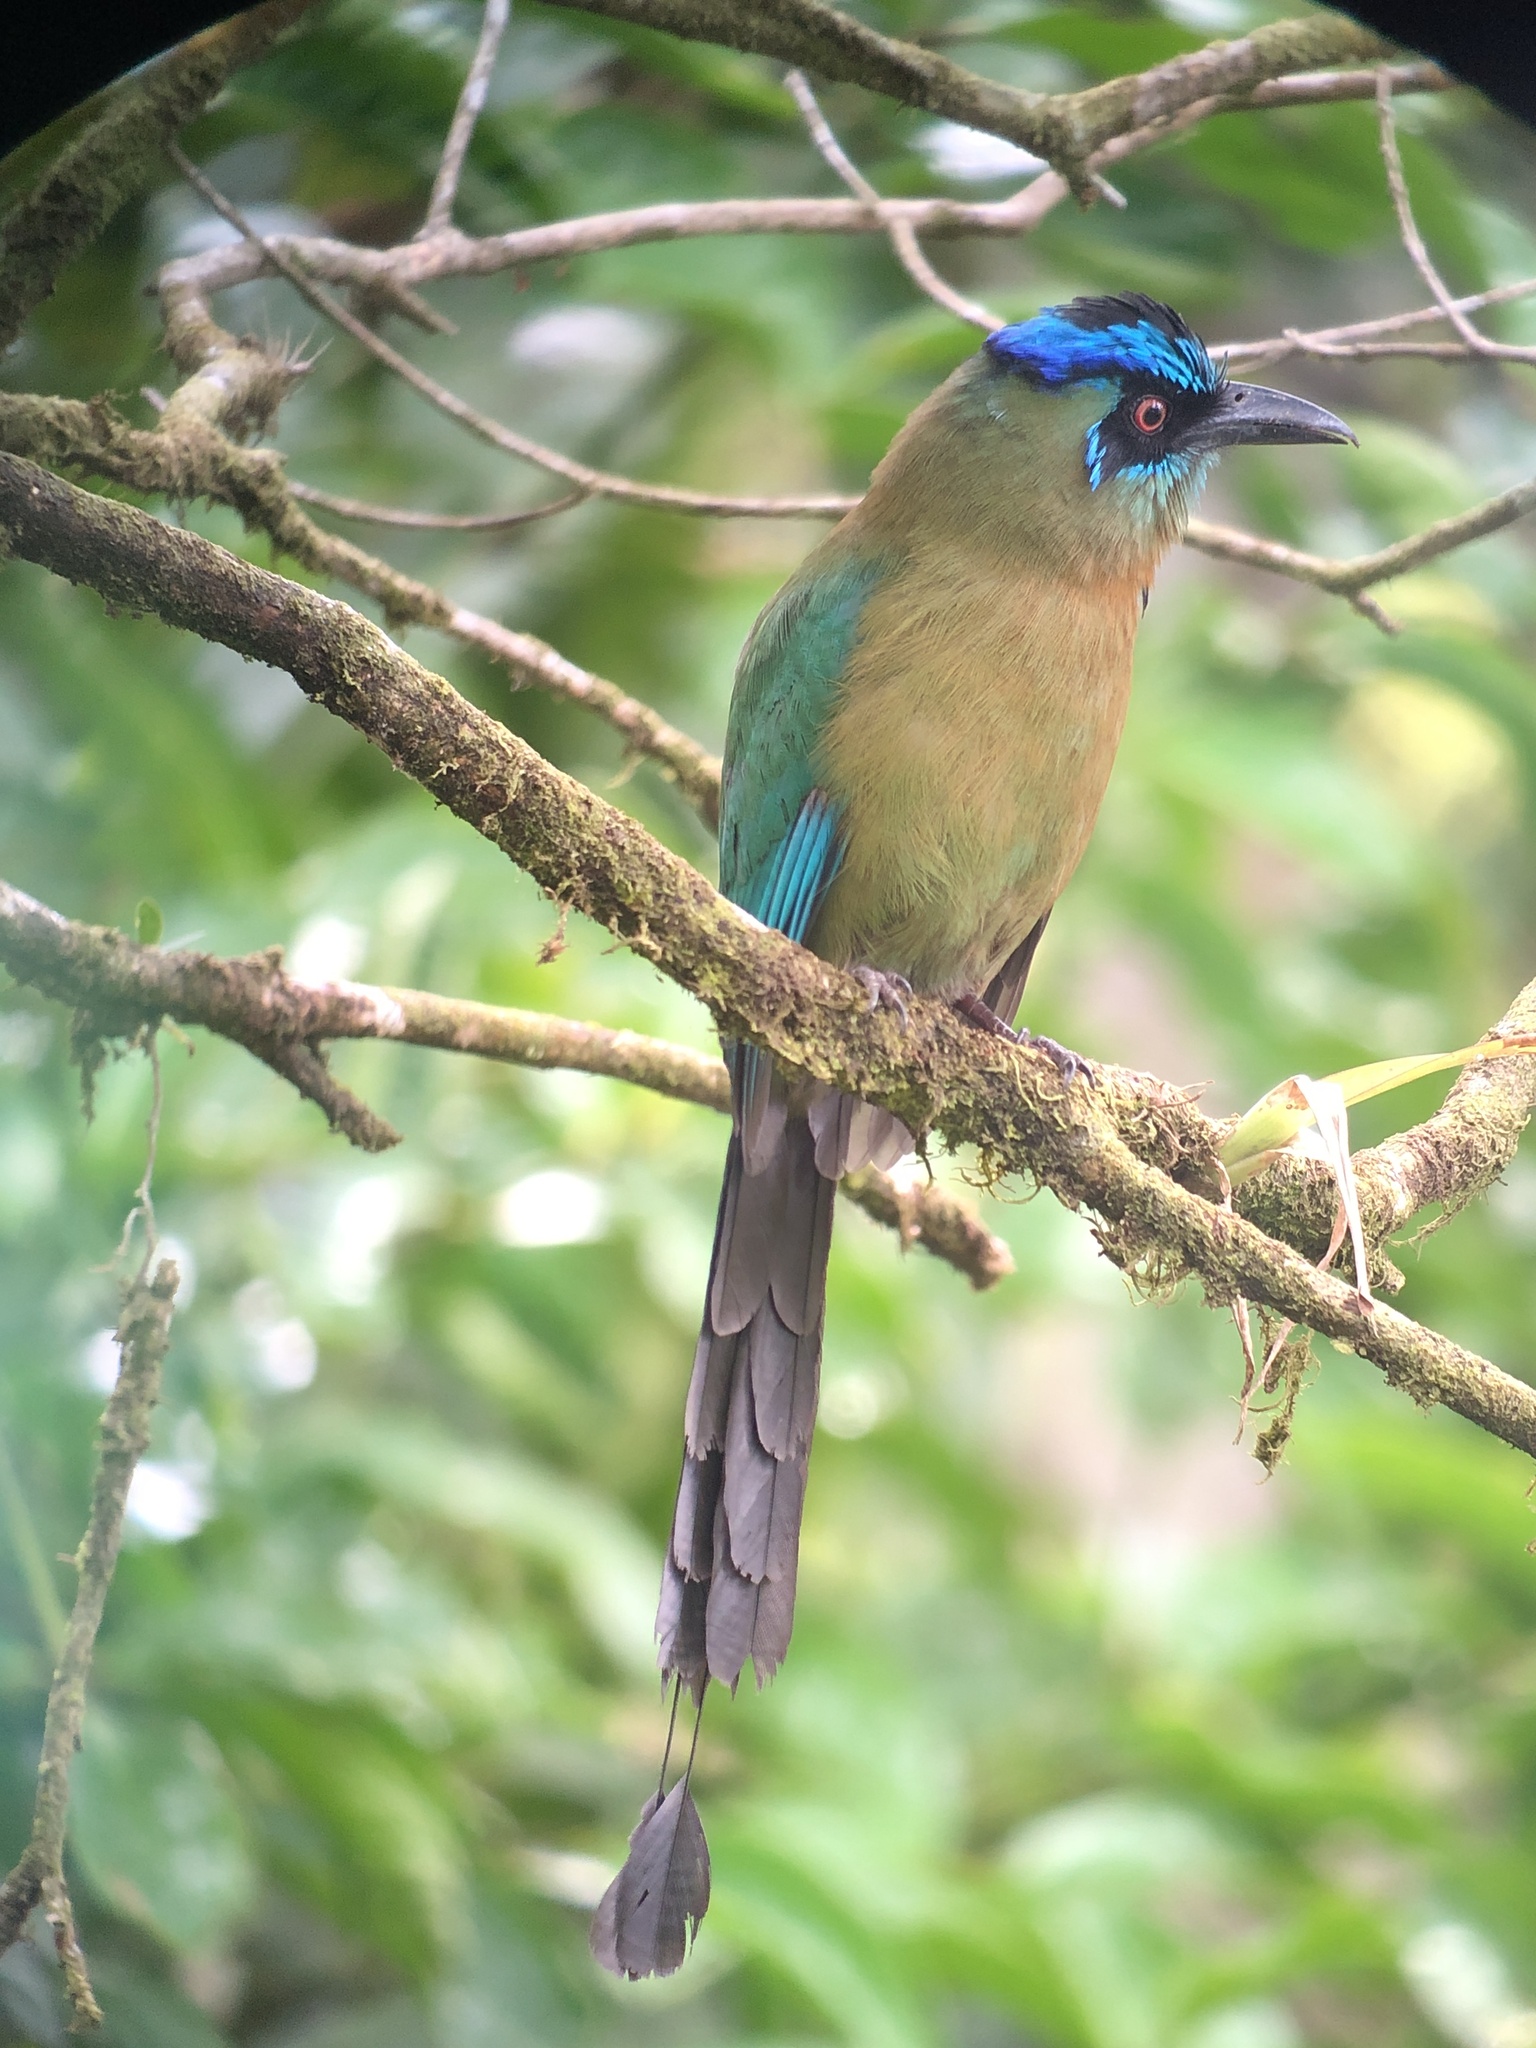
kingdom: Animalia
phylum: Chordata
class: Aves
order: Coraciiformes
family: Momotidae
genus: Momotus
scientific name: Momotus lessonii
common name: Lesson's motmot
